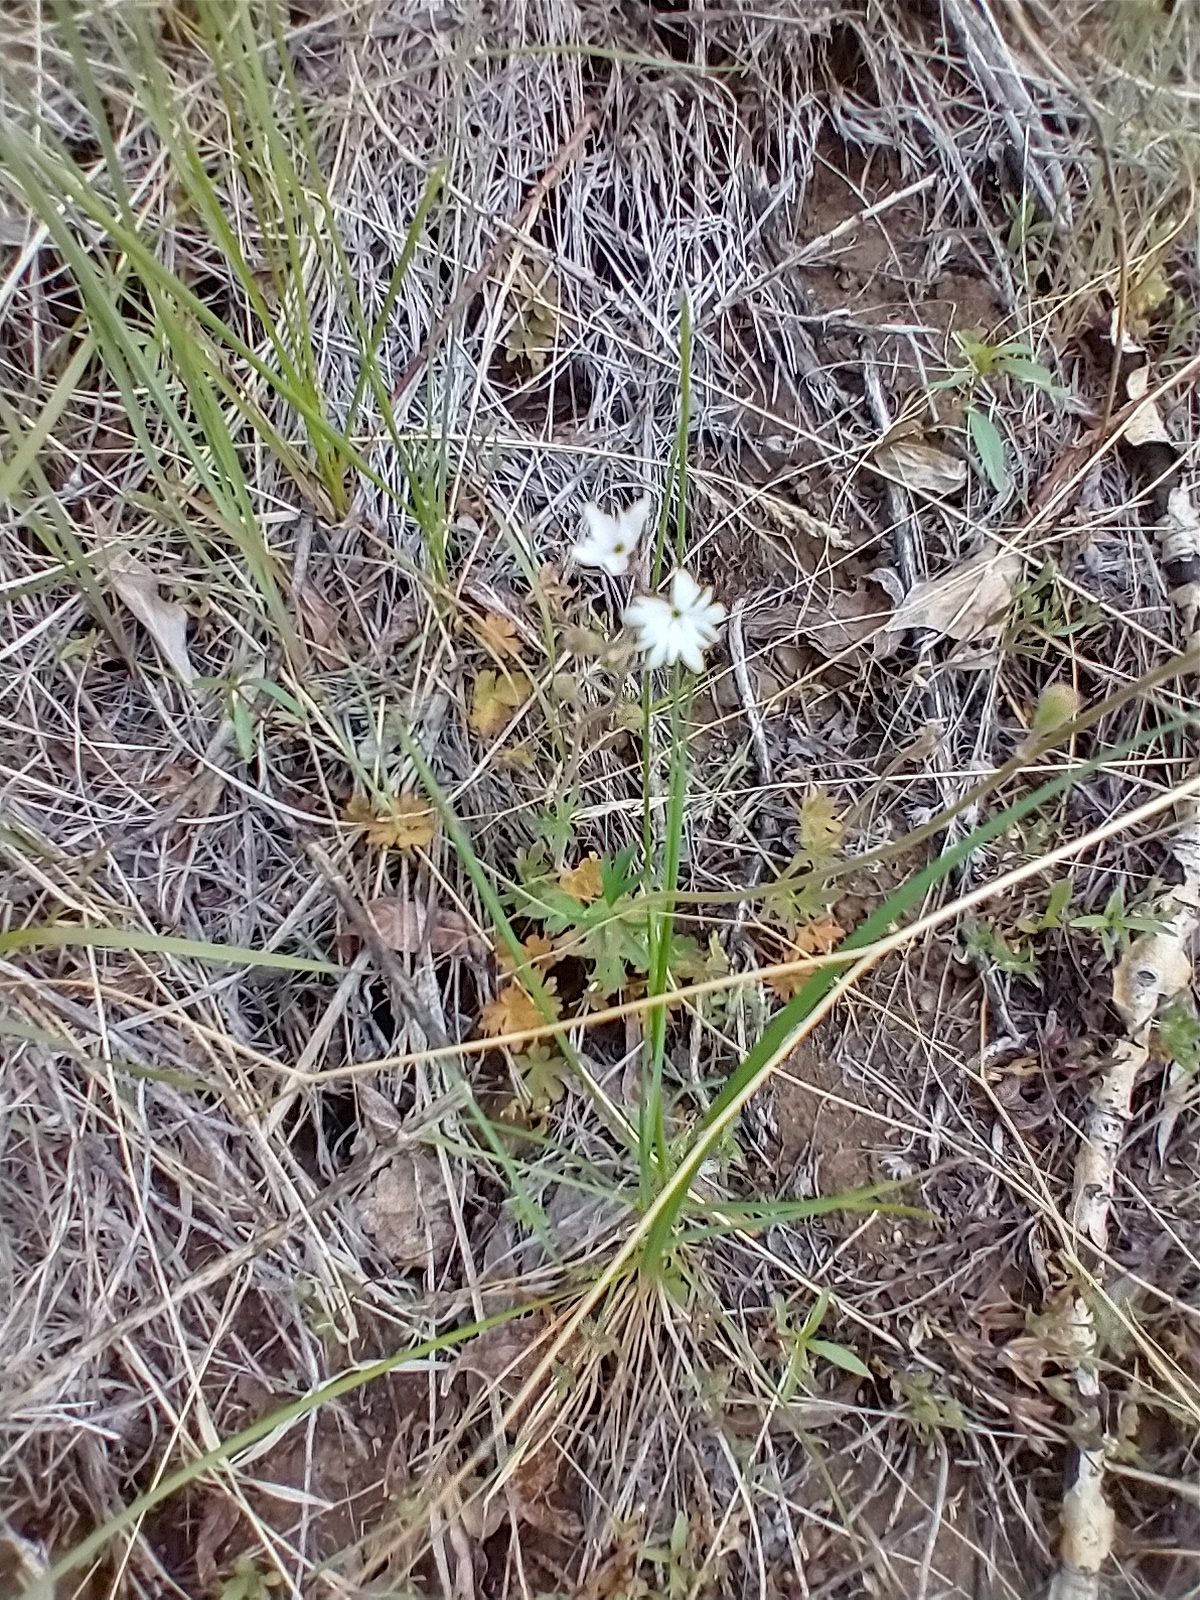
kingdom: Plantae
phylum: Tracheophyta
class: Magnoliopsida
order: Saxifragales
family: Saxifragaceae
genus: Lithophragma
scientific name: Lithophragma parviflorum
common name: Small-flowered fringe-cup
